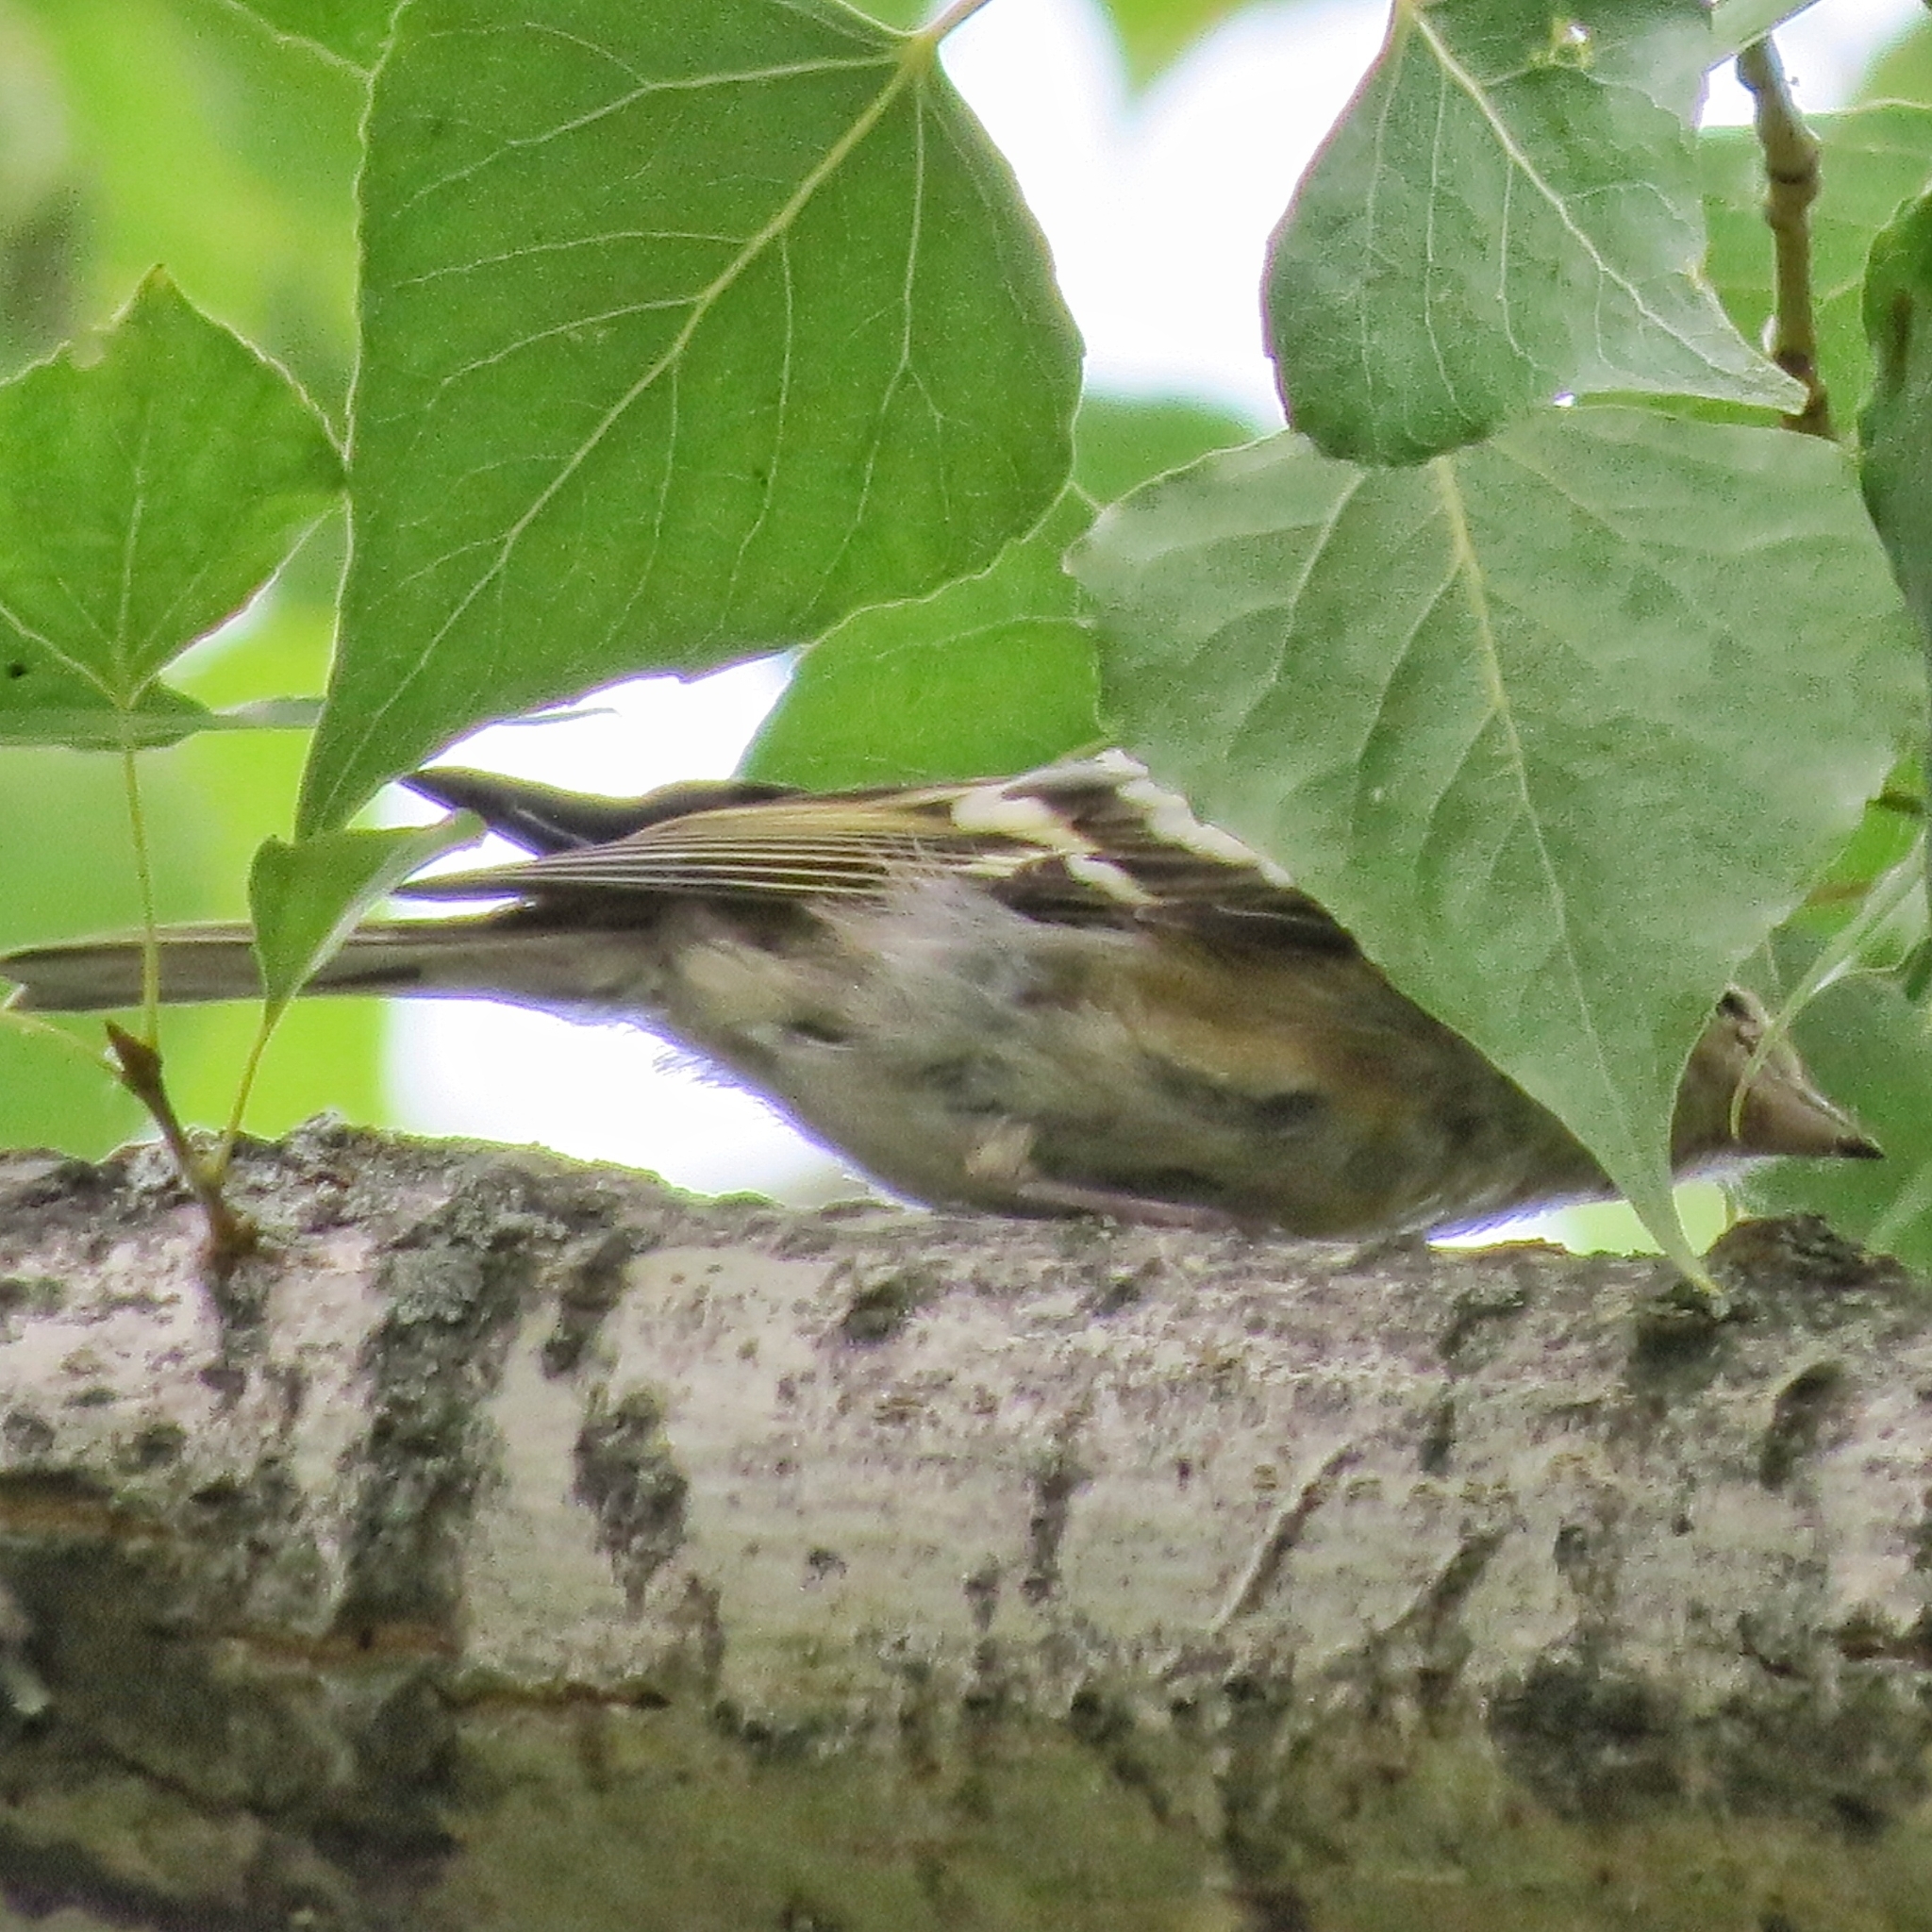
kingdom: Animalia
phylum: Chordata
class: Aves
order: Passeriformes
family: Fringillidae
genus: Fringilla
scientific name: Fringilla coelebs
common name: Common chaffinch
